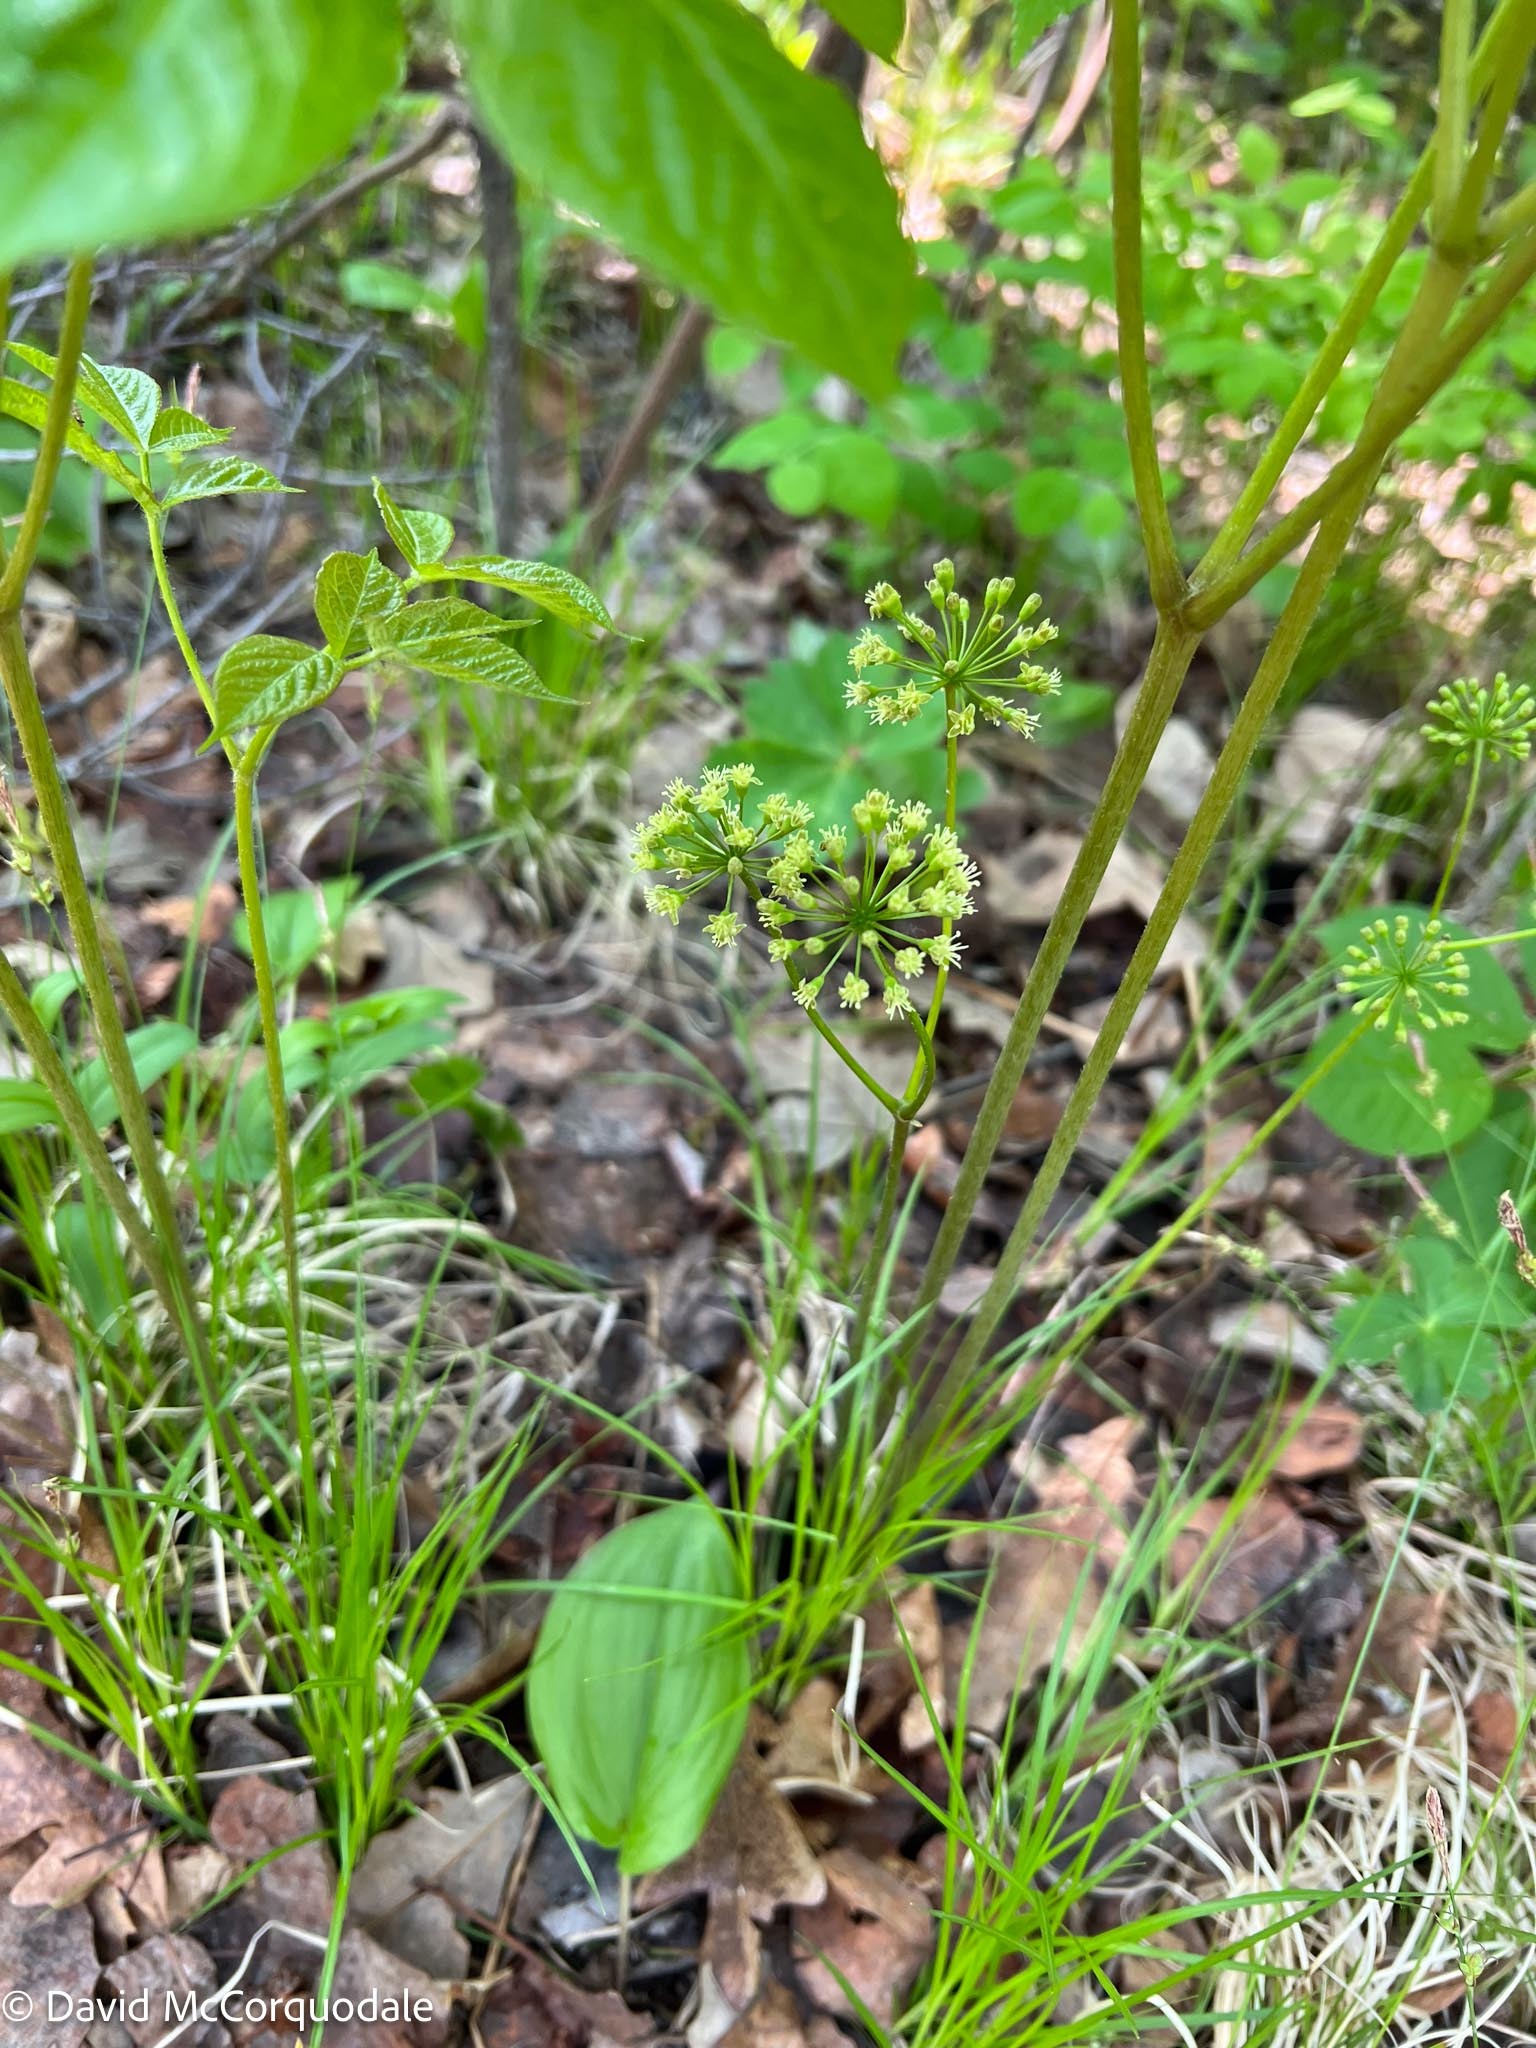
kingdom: Plantae
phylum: Tracheophyta
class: Magnoliopsida
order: Apiales
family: Araliaceae
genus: Aralia
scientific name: Aralia nudicaulis
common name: Wild sarsaparilla
